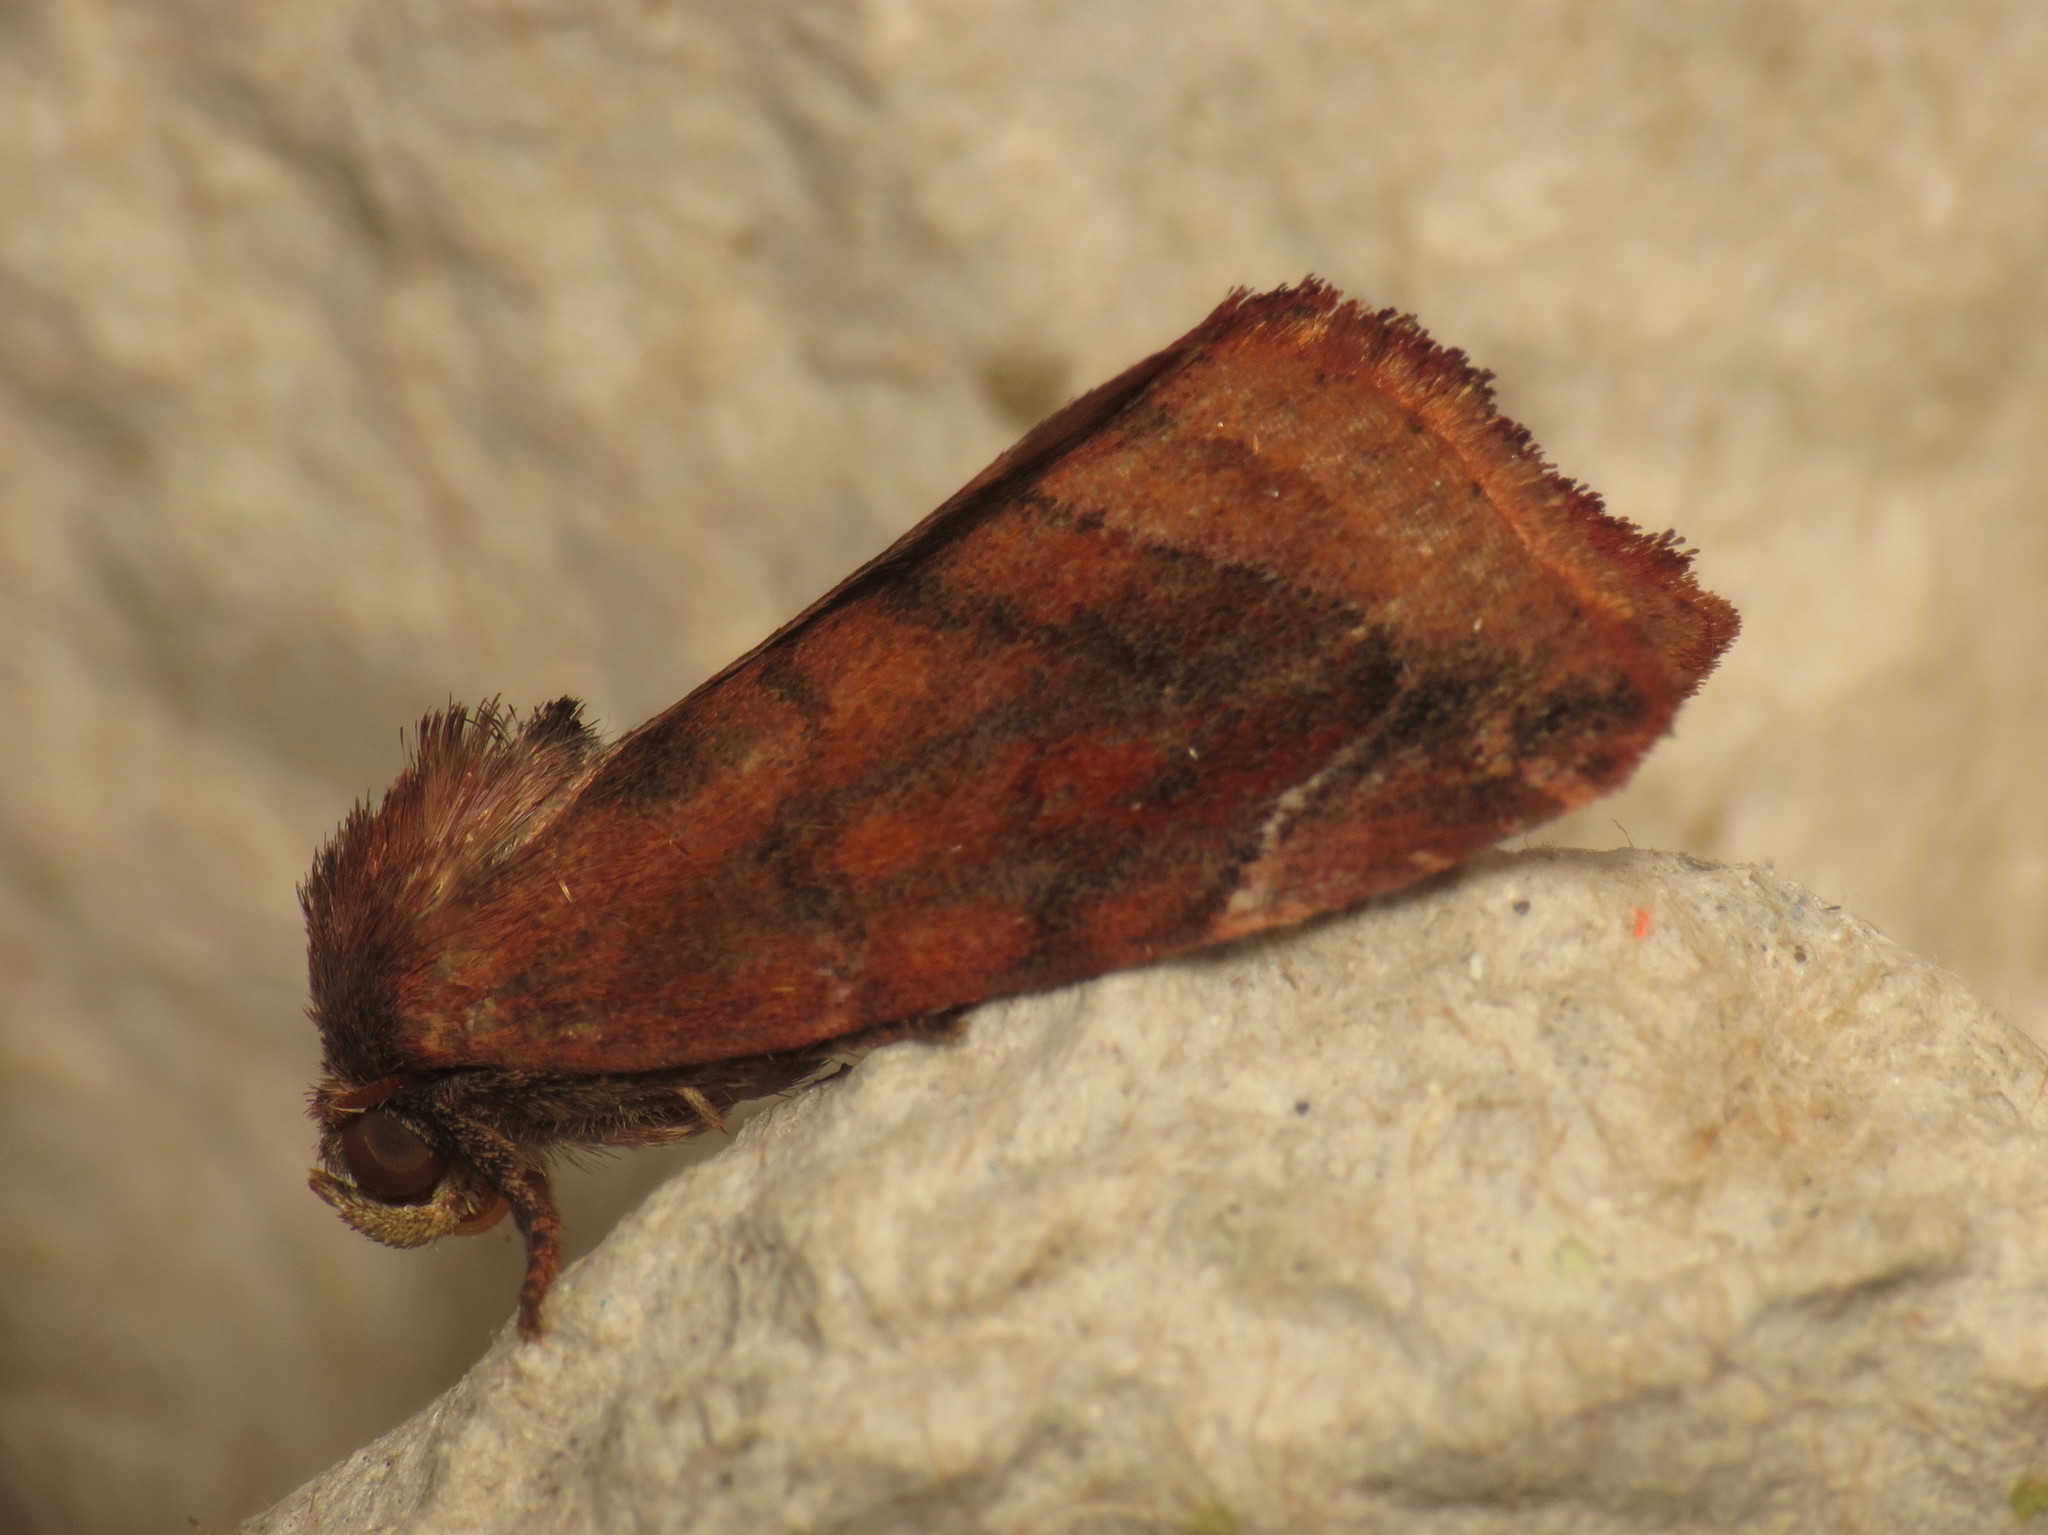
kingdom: Animalia
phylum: Arthropoda
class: Insecta
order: Lepidoptera
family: Noctuidae
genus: Cosmia
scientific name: Cosmia pyralina
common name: Lunar-spotted pinion
